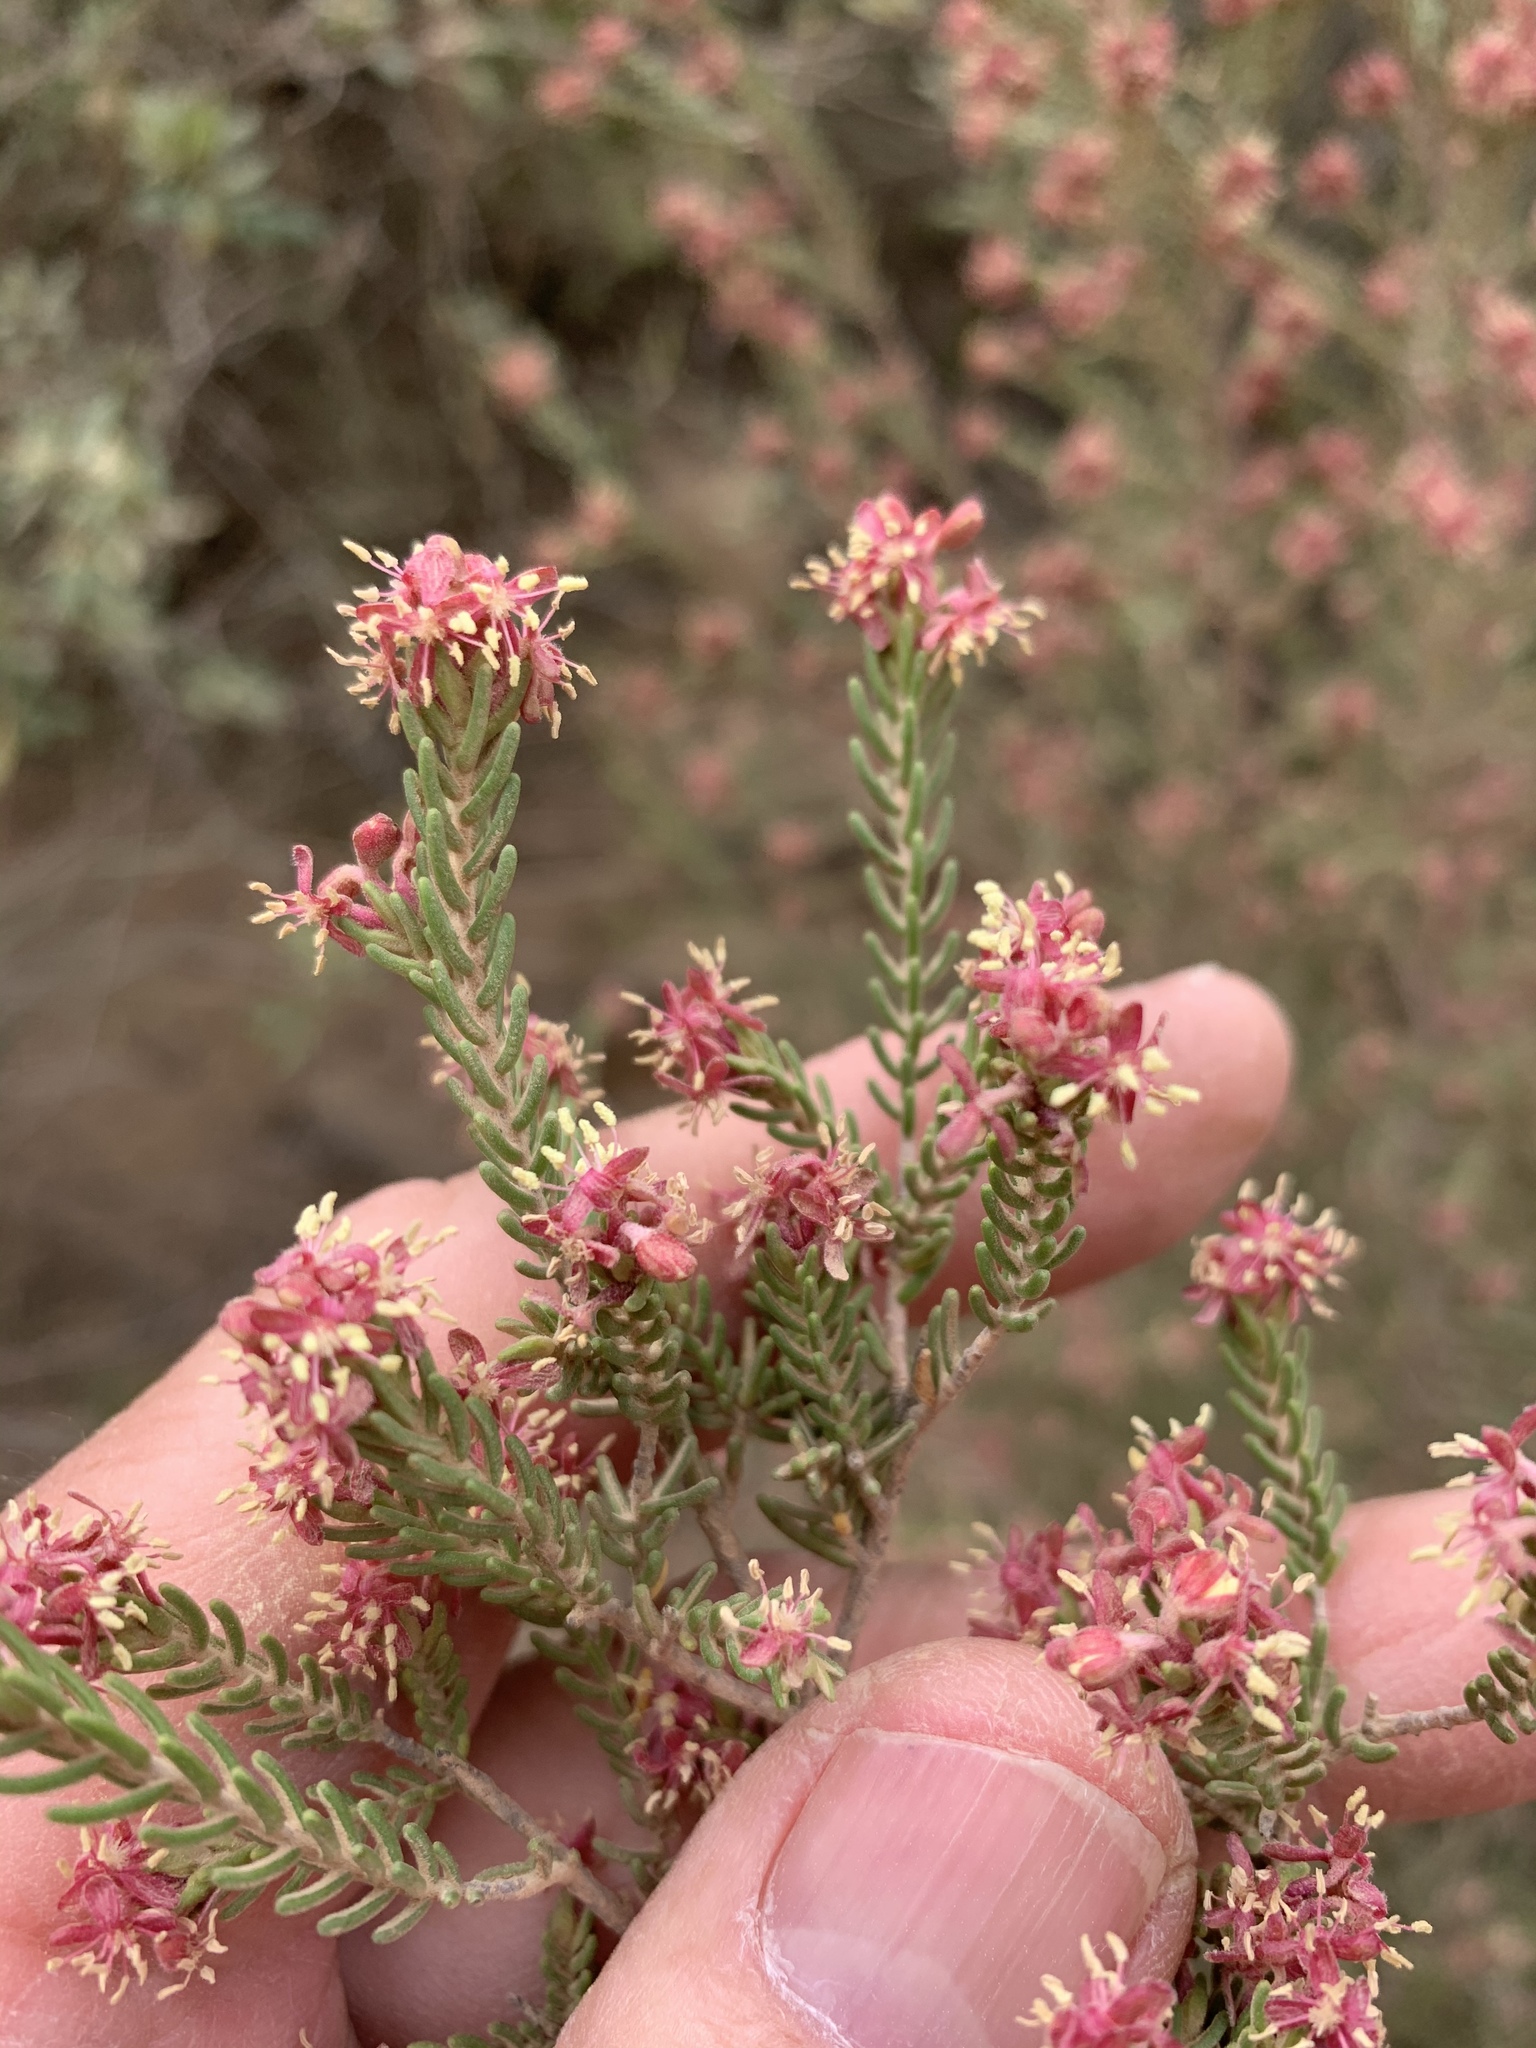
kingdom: Plantae
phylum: Tracheophyta
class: Magnoliopsida
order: Malvales
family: Thymelaeaceae
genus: Passerina
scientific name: Passerina obtusifolia
